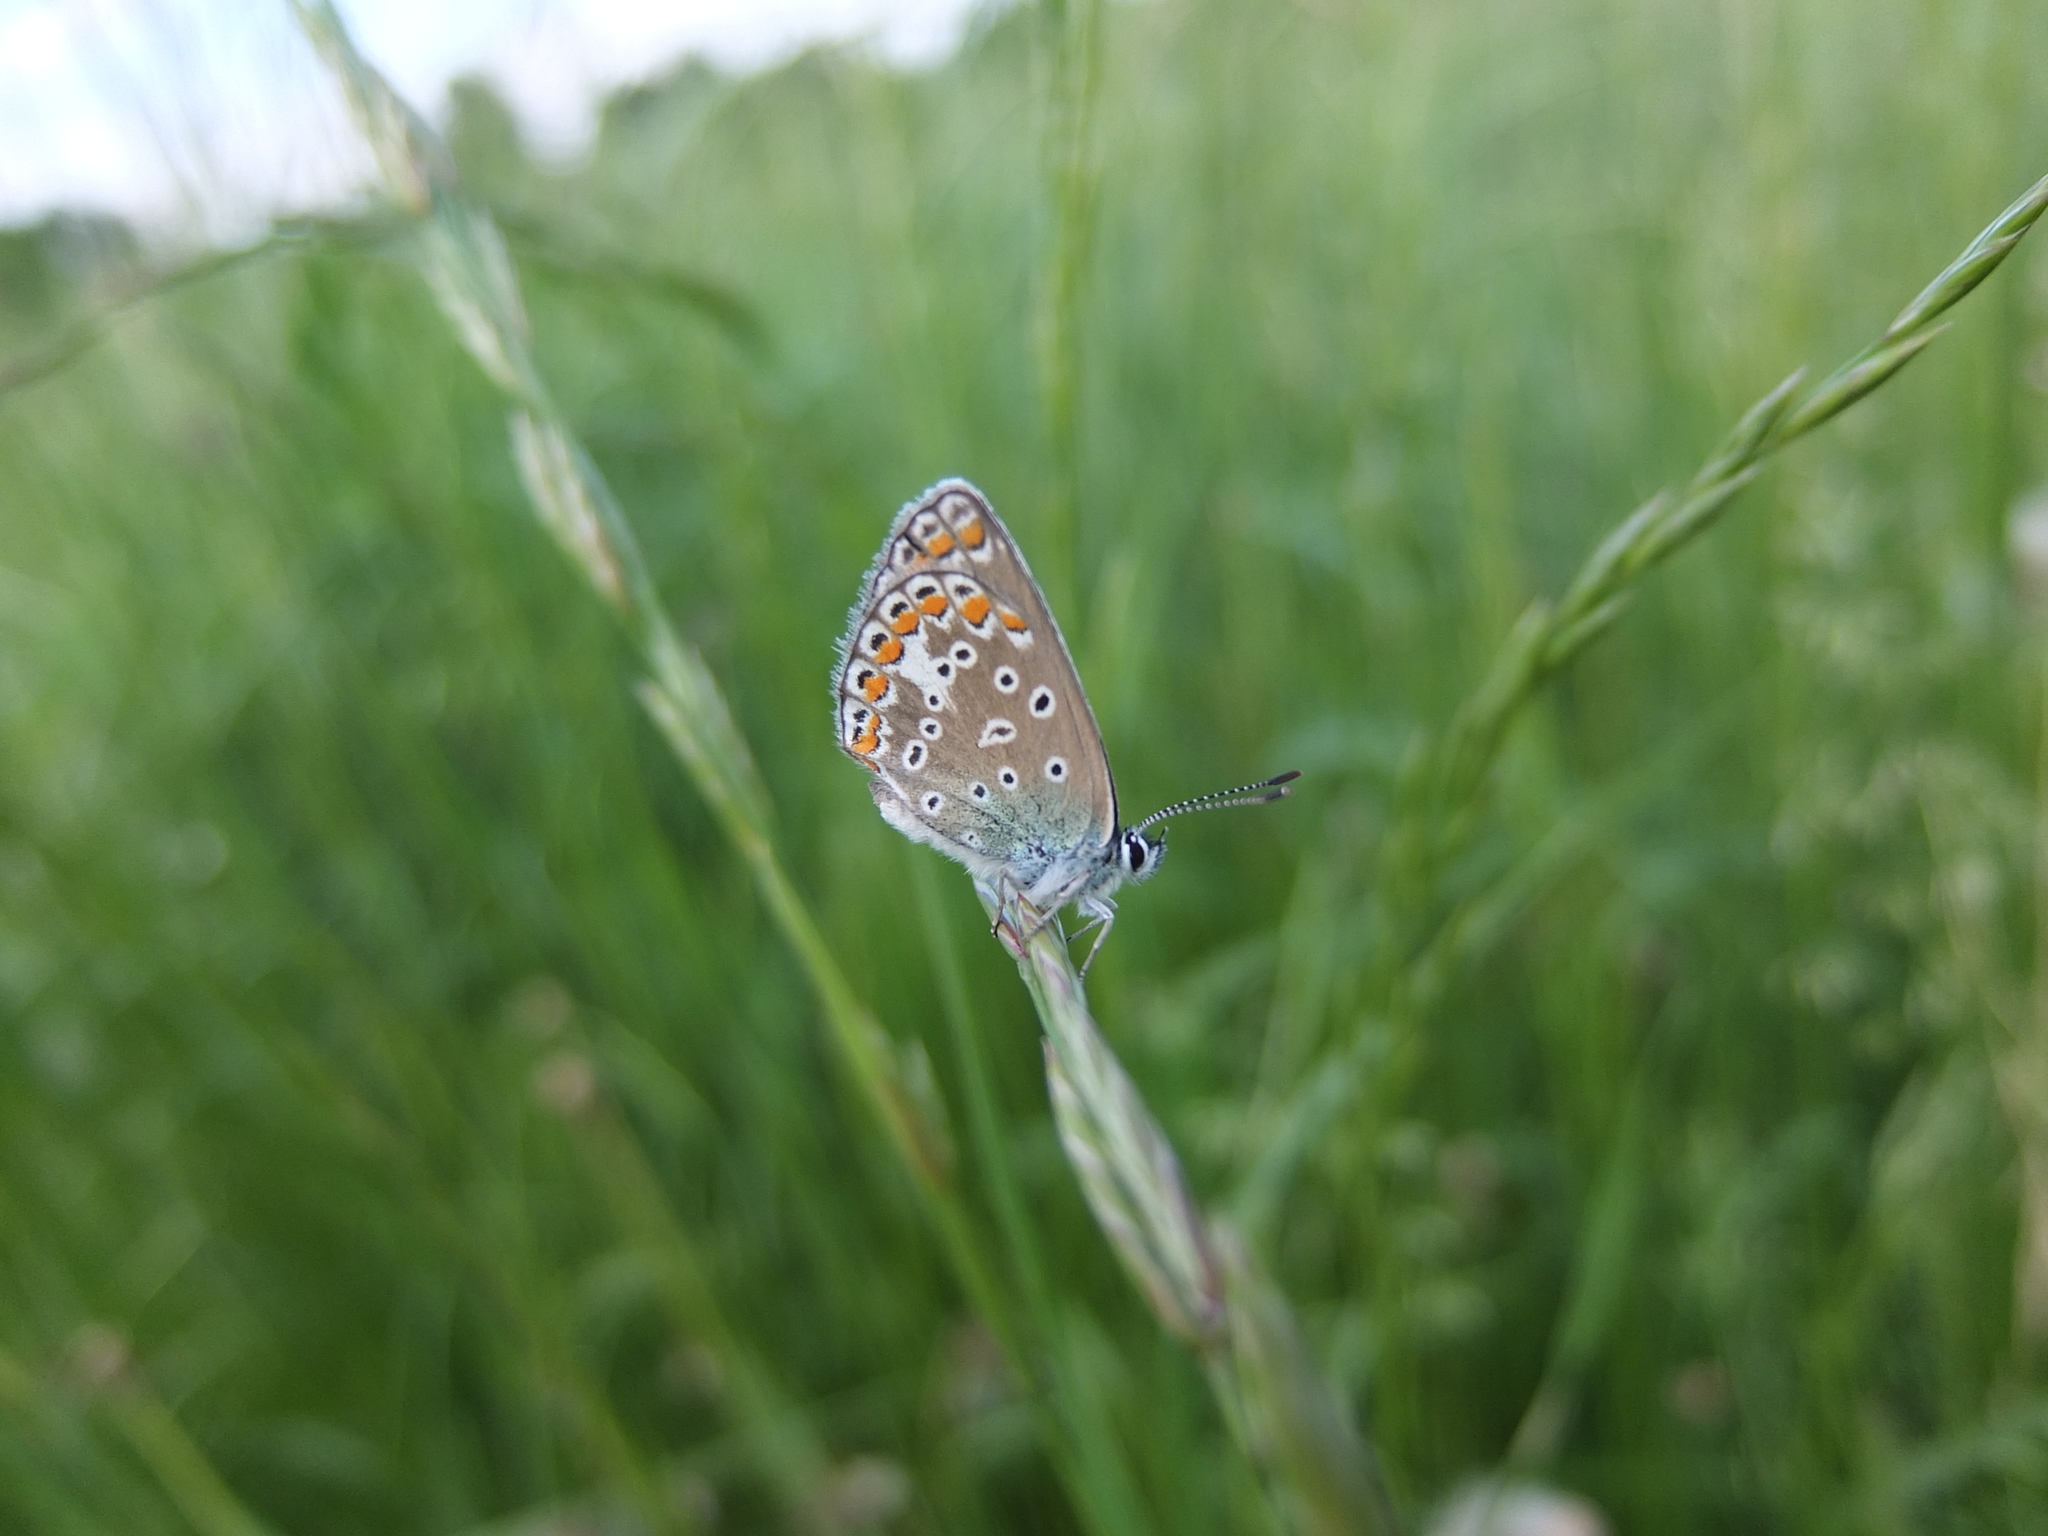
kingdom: Animalia
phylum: Arthropoda
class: Insecta
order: Lepidoptera
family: Lycaenidae
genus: Polyommatus
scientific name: Polyommatus icarus
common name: Common blue
